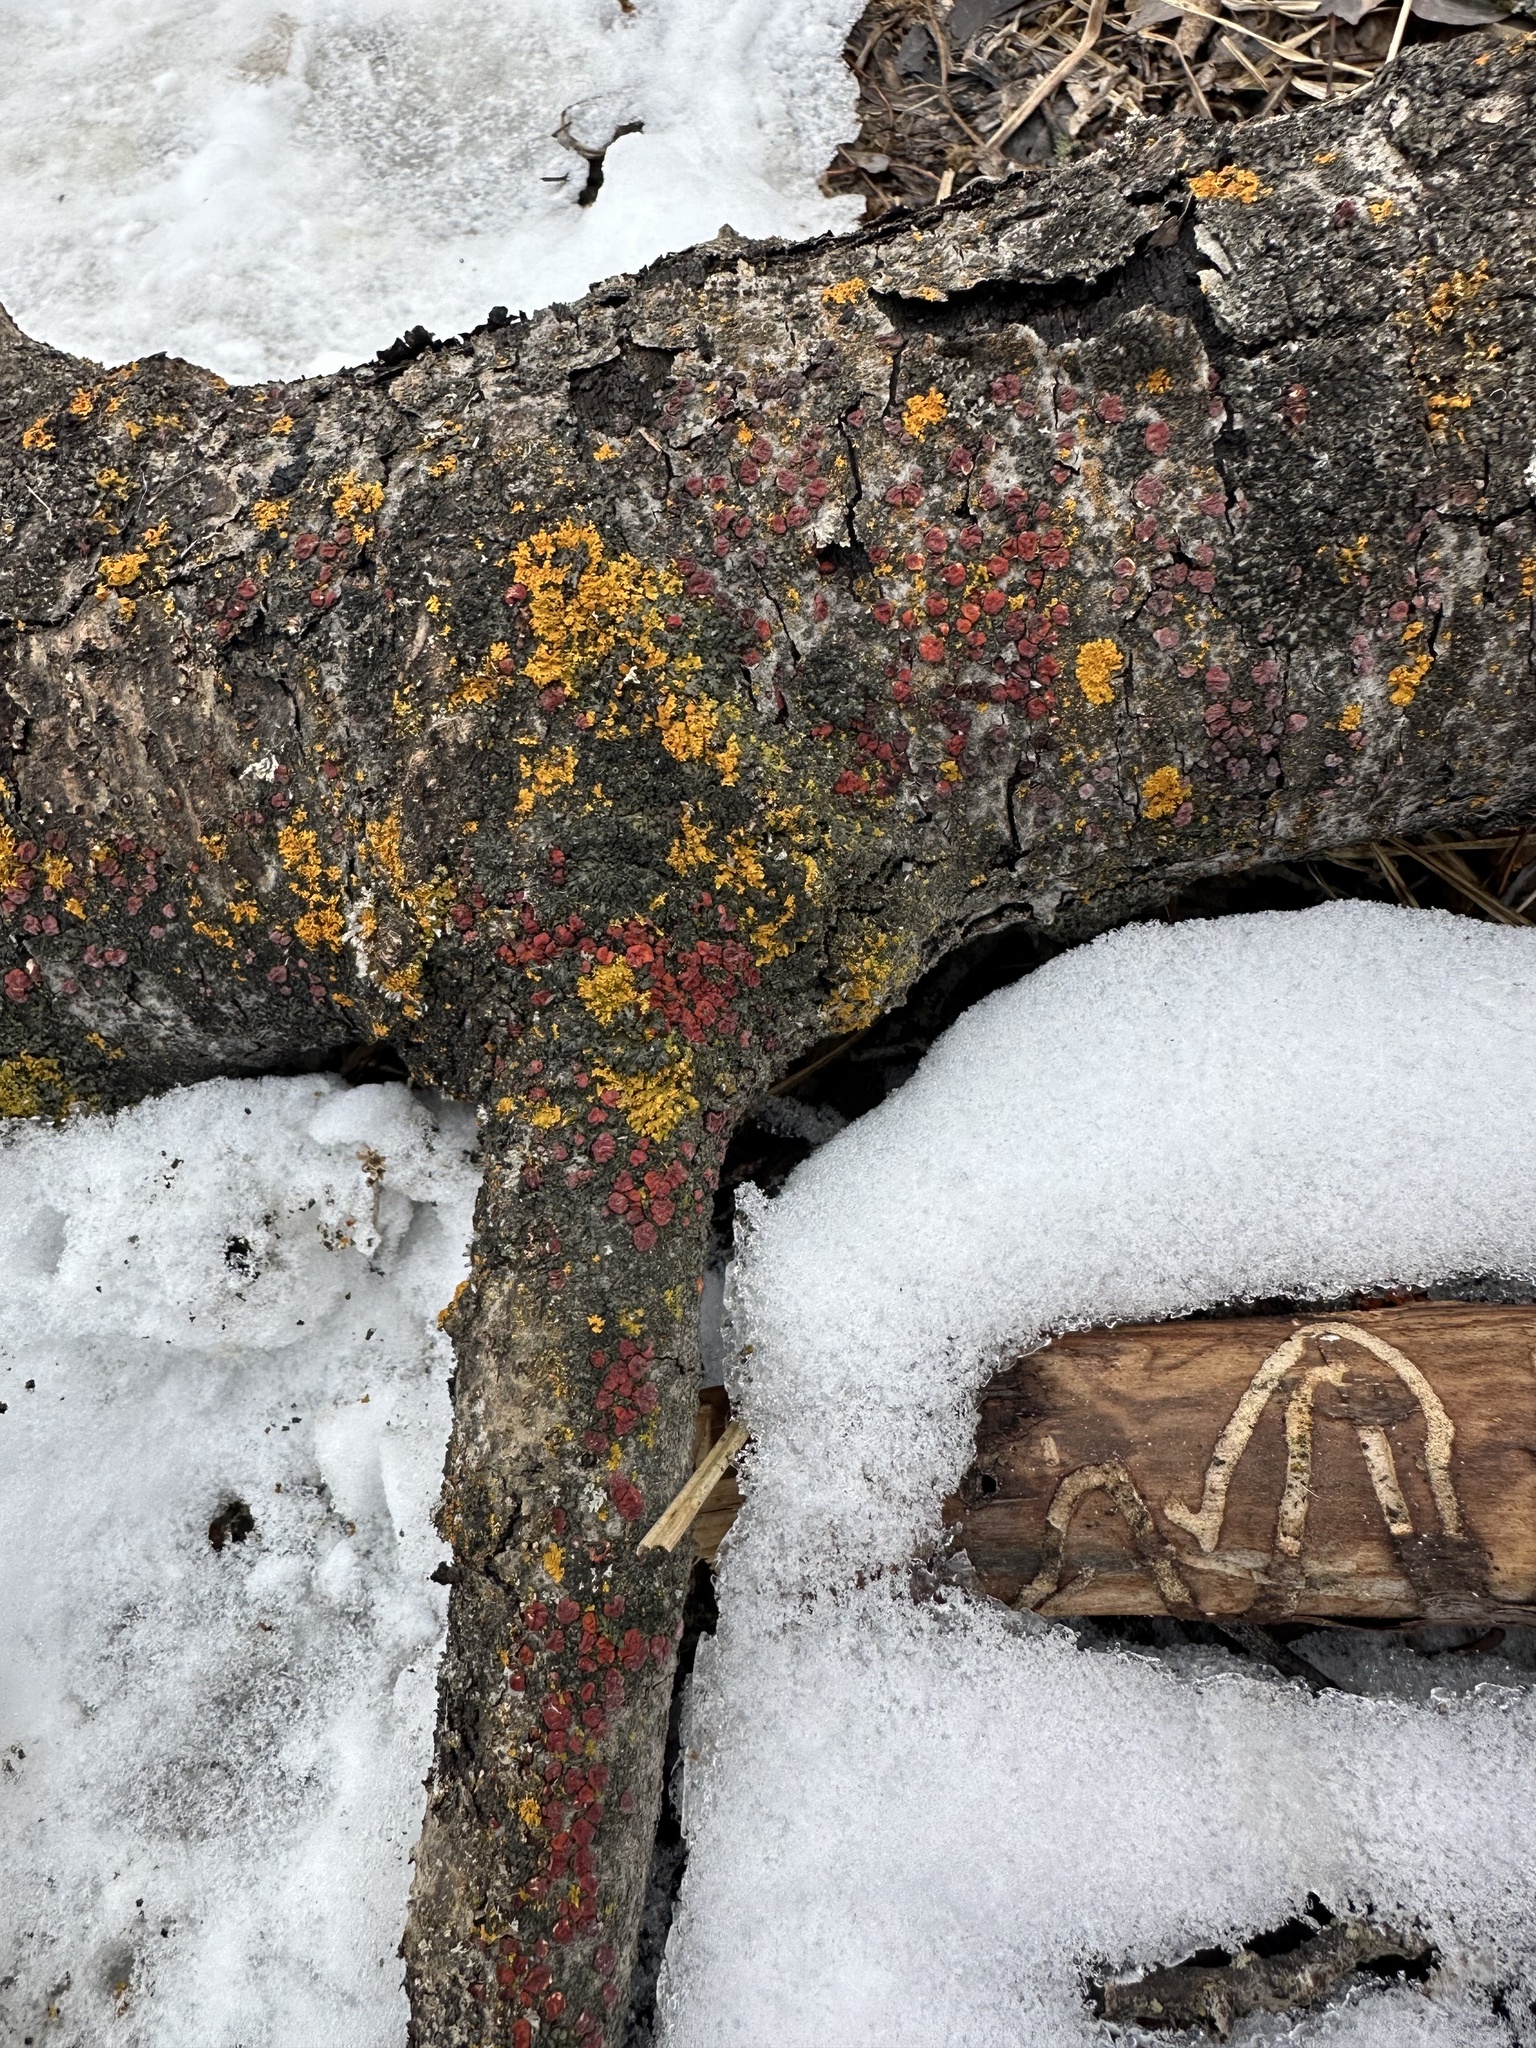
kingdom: Fungi
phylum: Basidiomycota
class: Agaricomycetes
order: Russulales
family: Peniophoraceae
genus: Peniophora
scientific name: Peniophora rufa
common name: Red tree brain fungus
